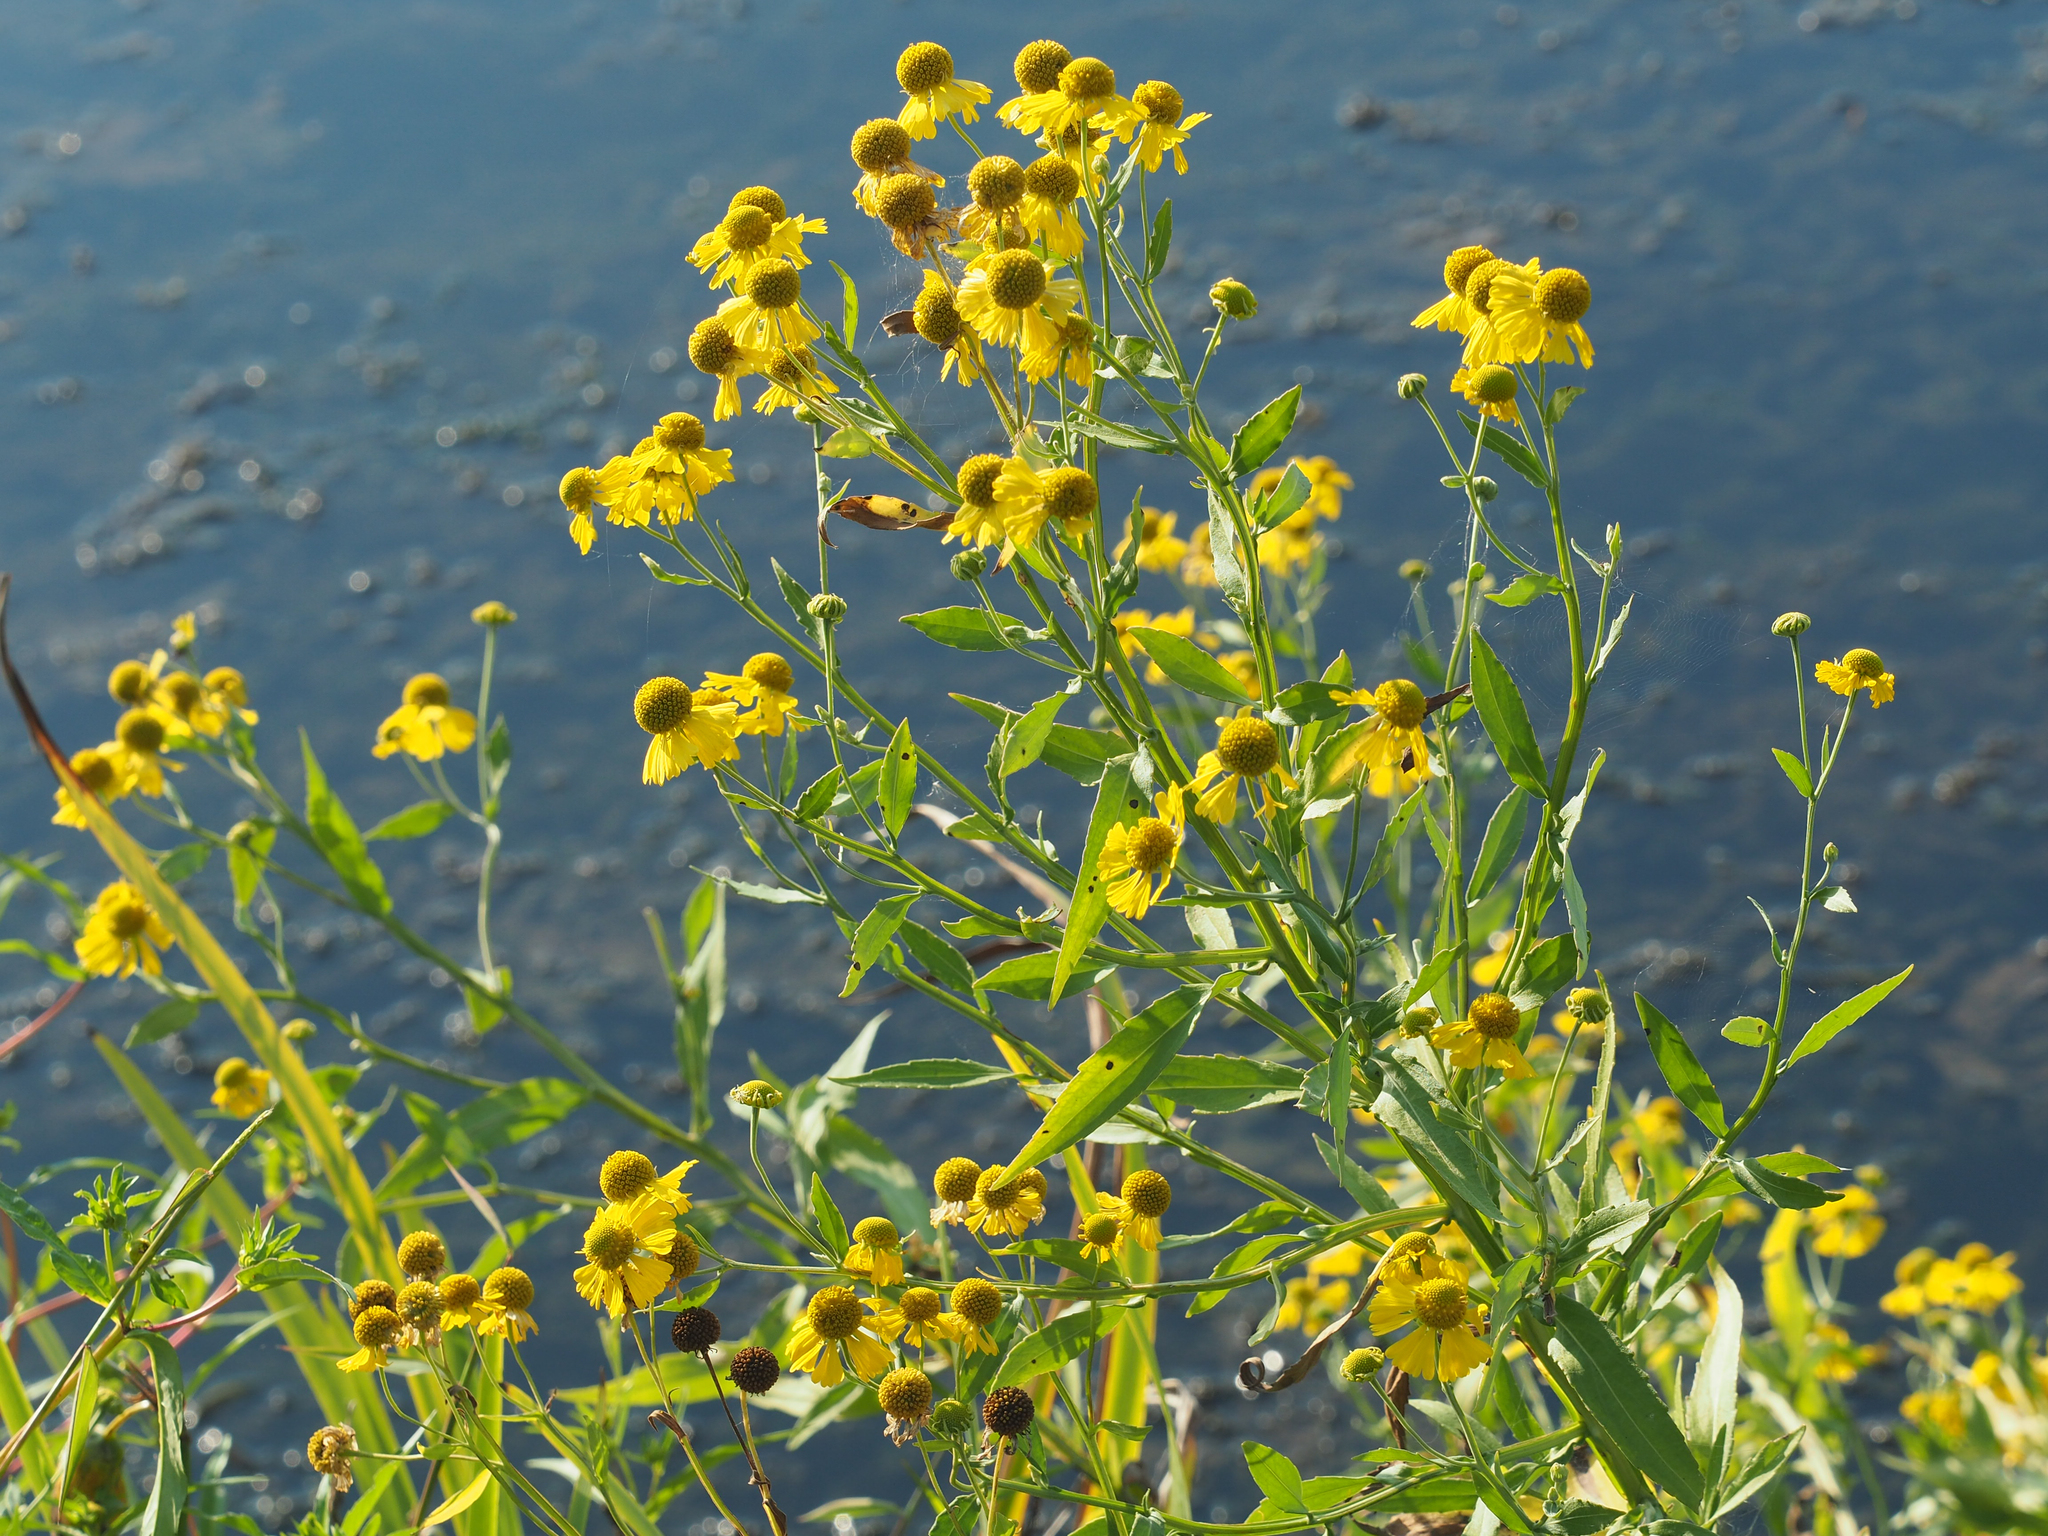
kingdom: Plantae
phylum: Tracheophyta
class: Magnoliopsida
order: Asterales
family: Asteraceae
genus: Helenium
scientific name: Helenium autumnale
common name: Sneezeweed
